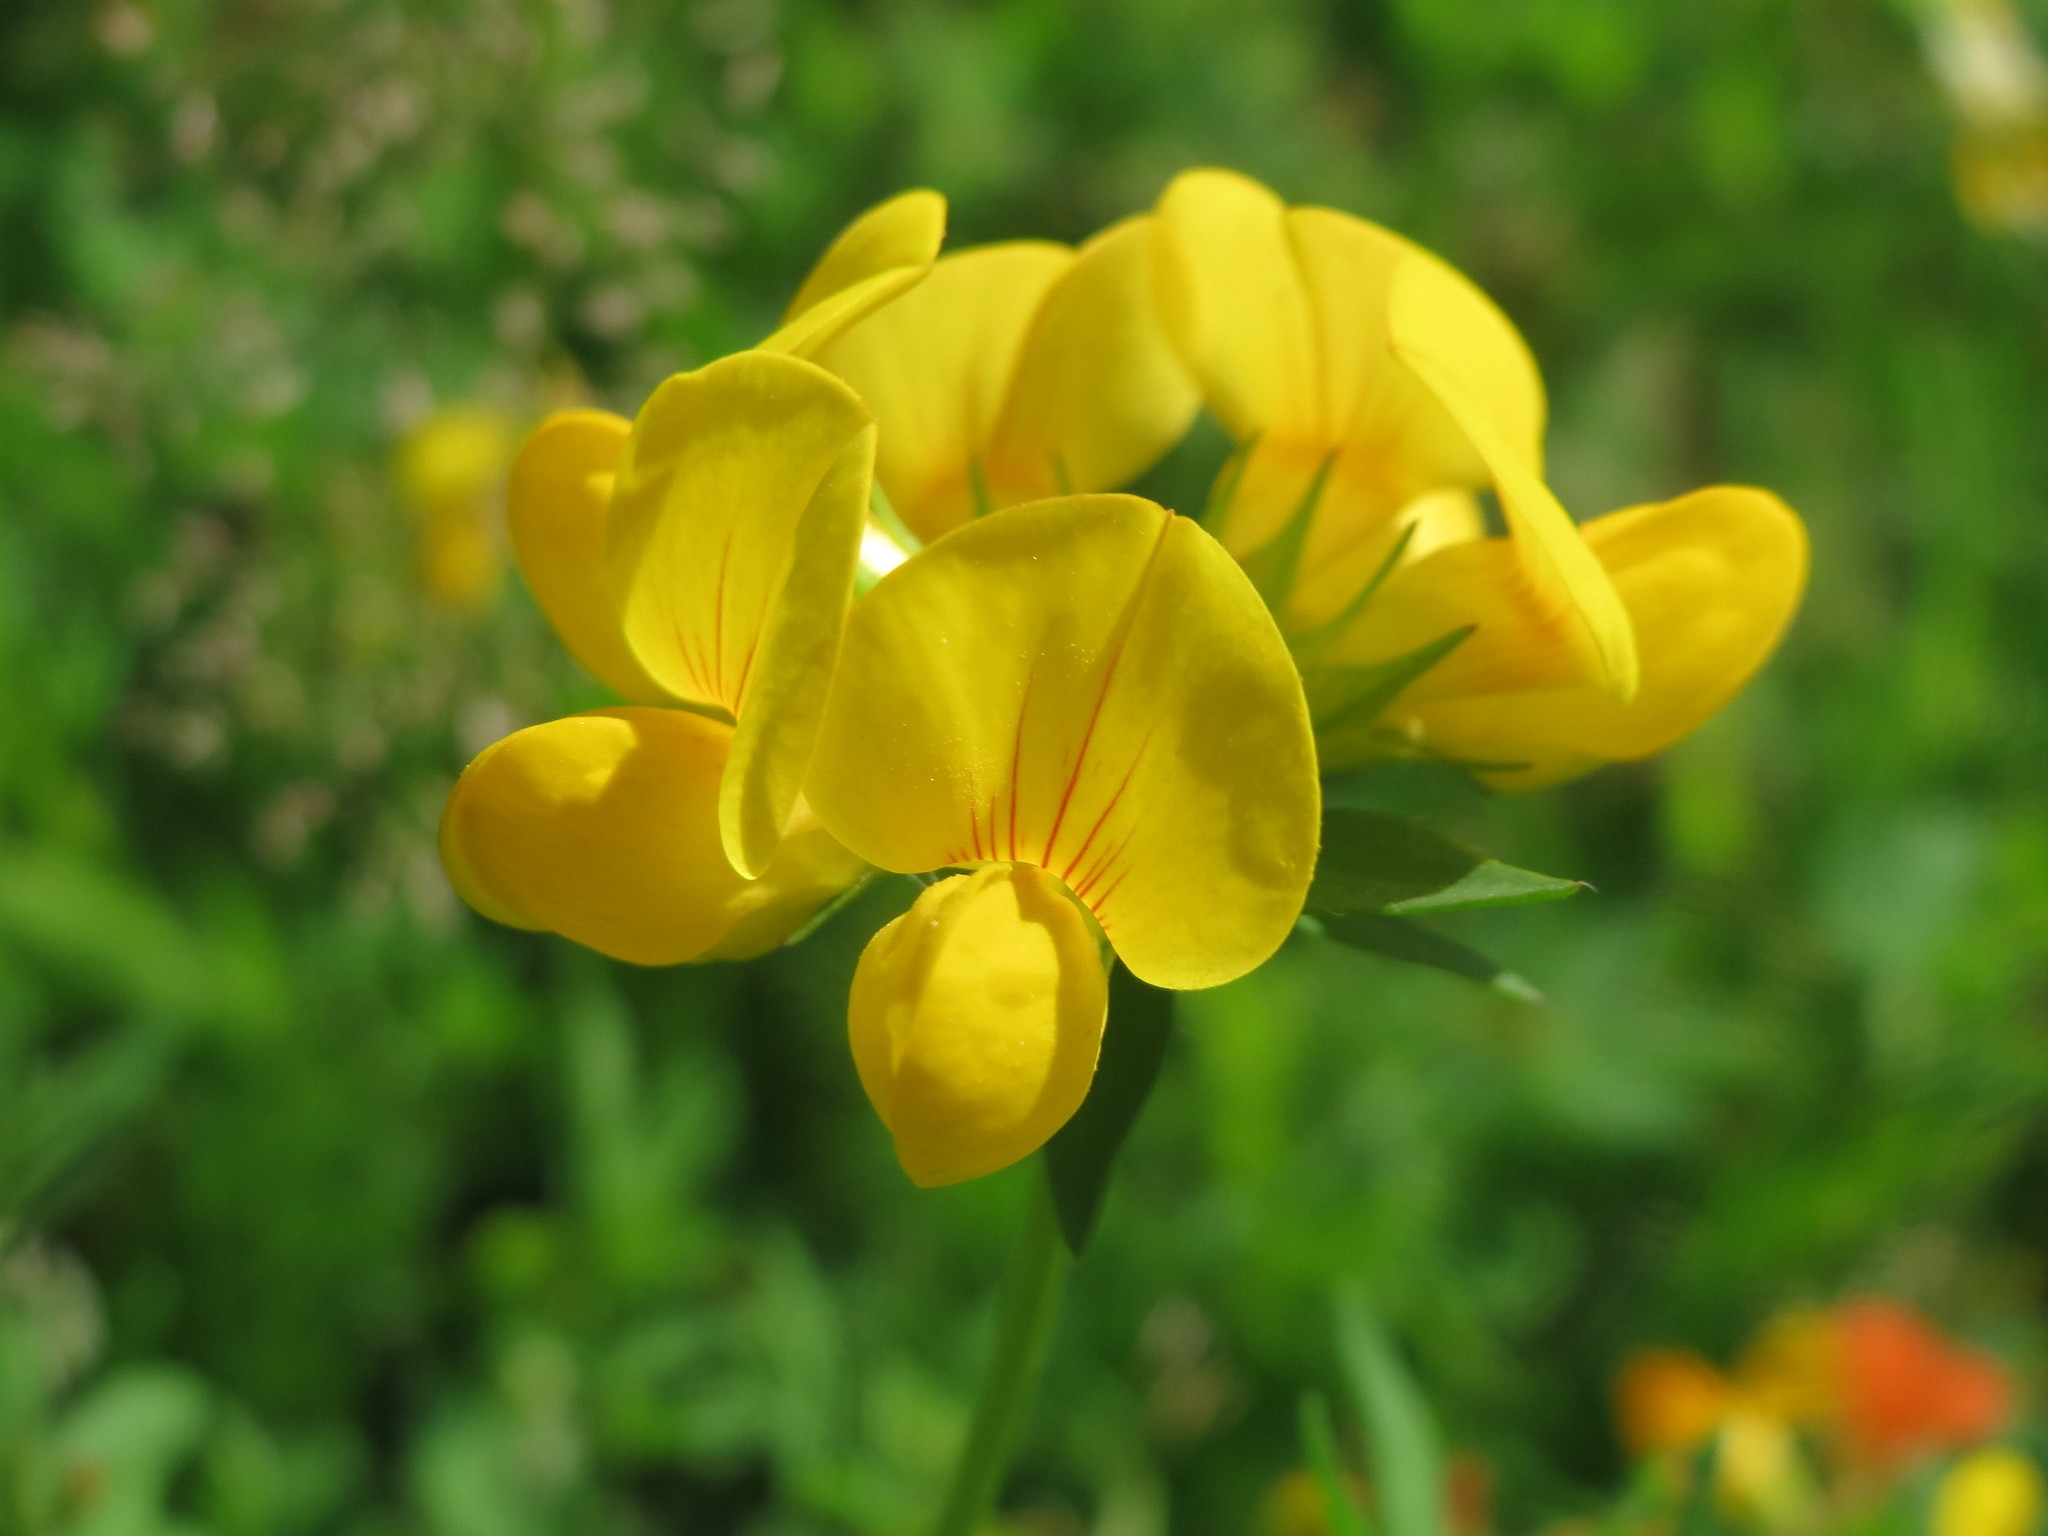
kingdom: Plantae
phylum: Tracheophyta
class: Magnoliopsida
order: Fabales
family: Fabaceae
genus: Lotus
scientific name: Lotus corniculatus
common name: Common bird's-foot-trefoil
